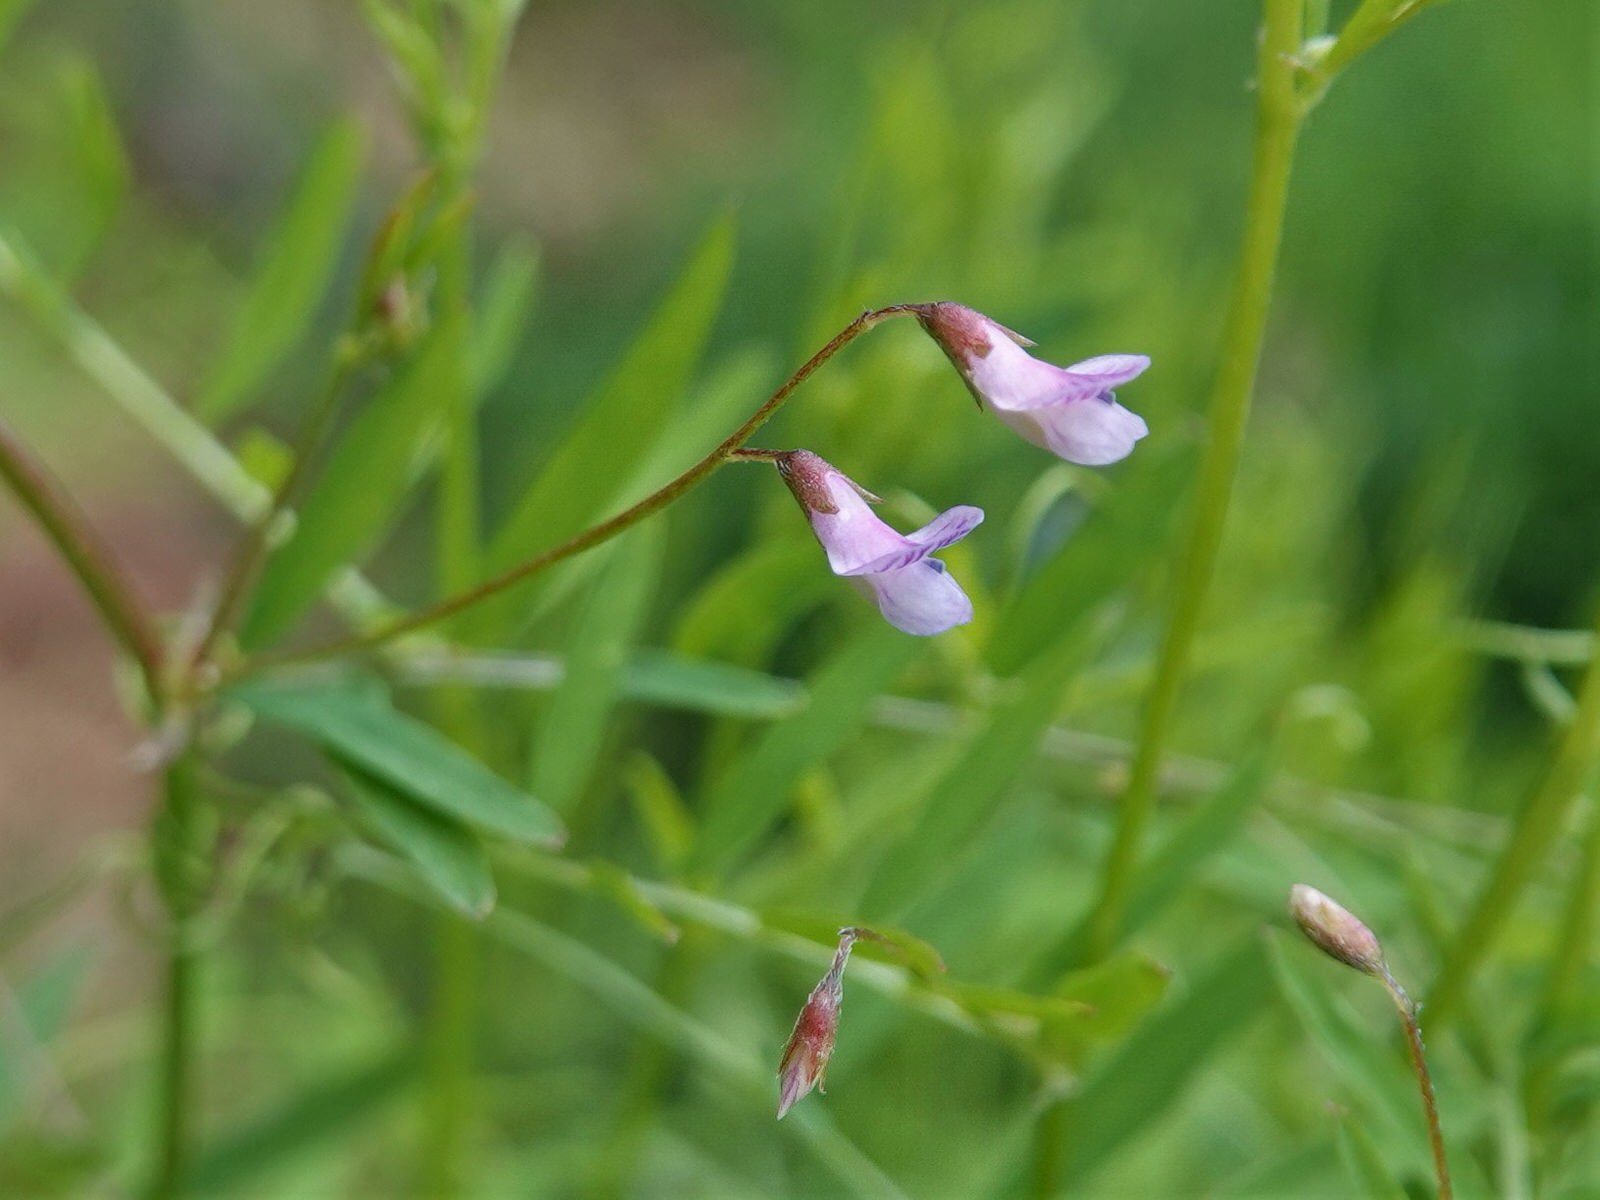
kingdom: Plantae
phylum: Tracheophyta
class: Magnoliopsida
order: Fabales
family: Fabaceae
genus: Vicia
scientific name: Vicia tetrasperma
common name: Smooth tare
